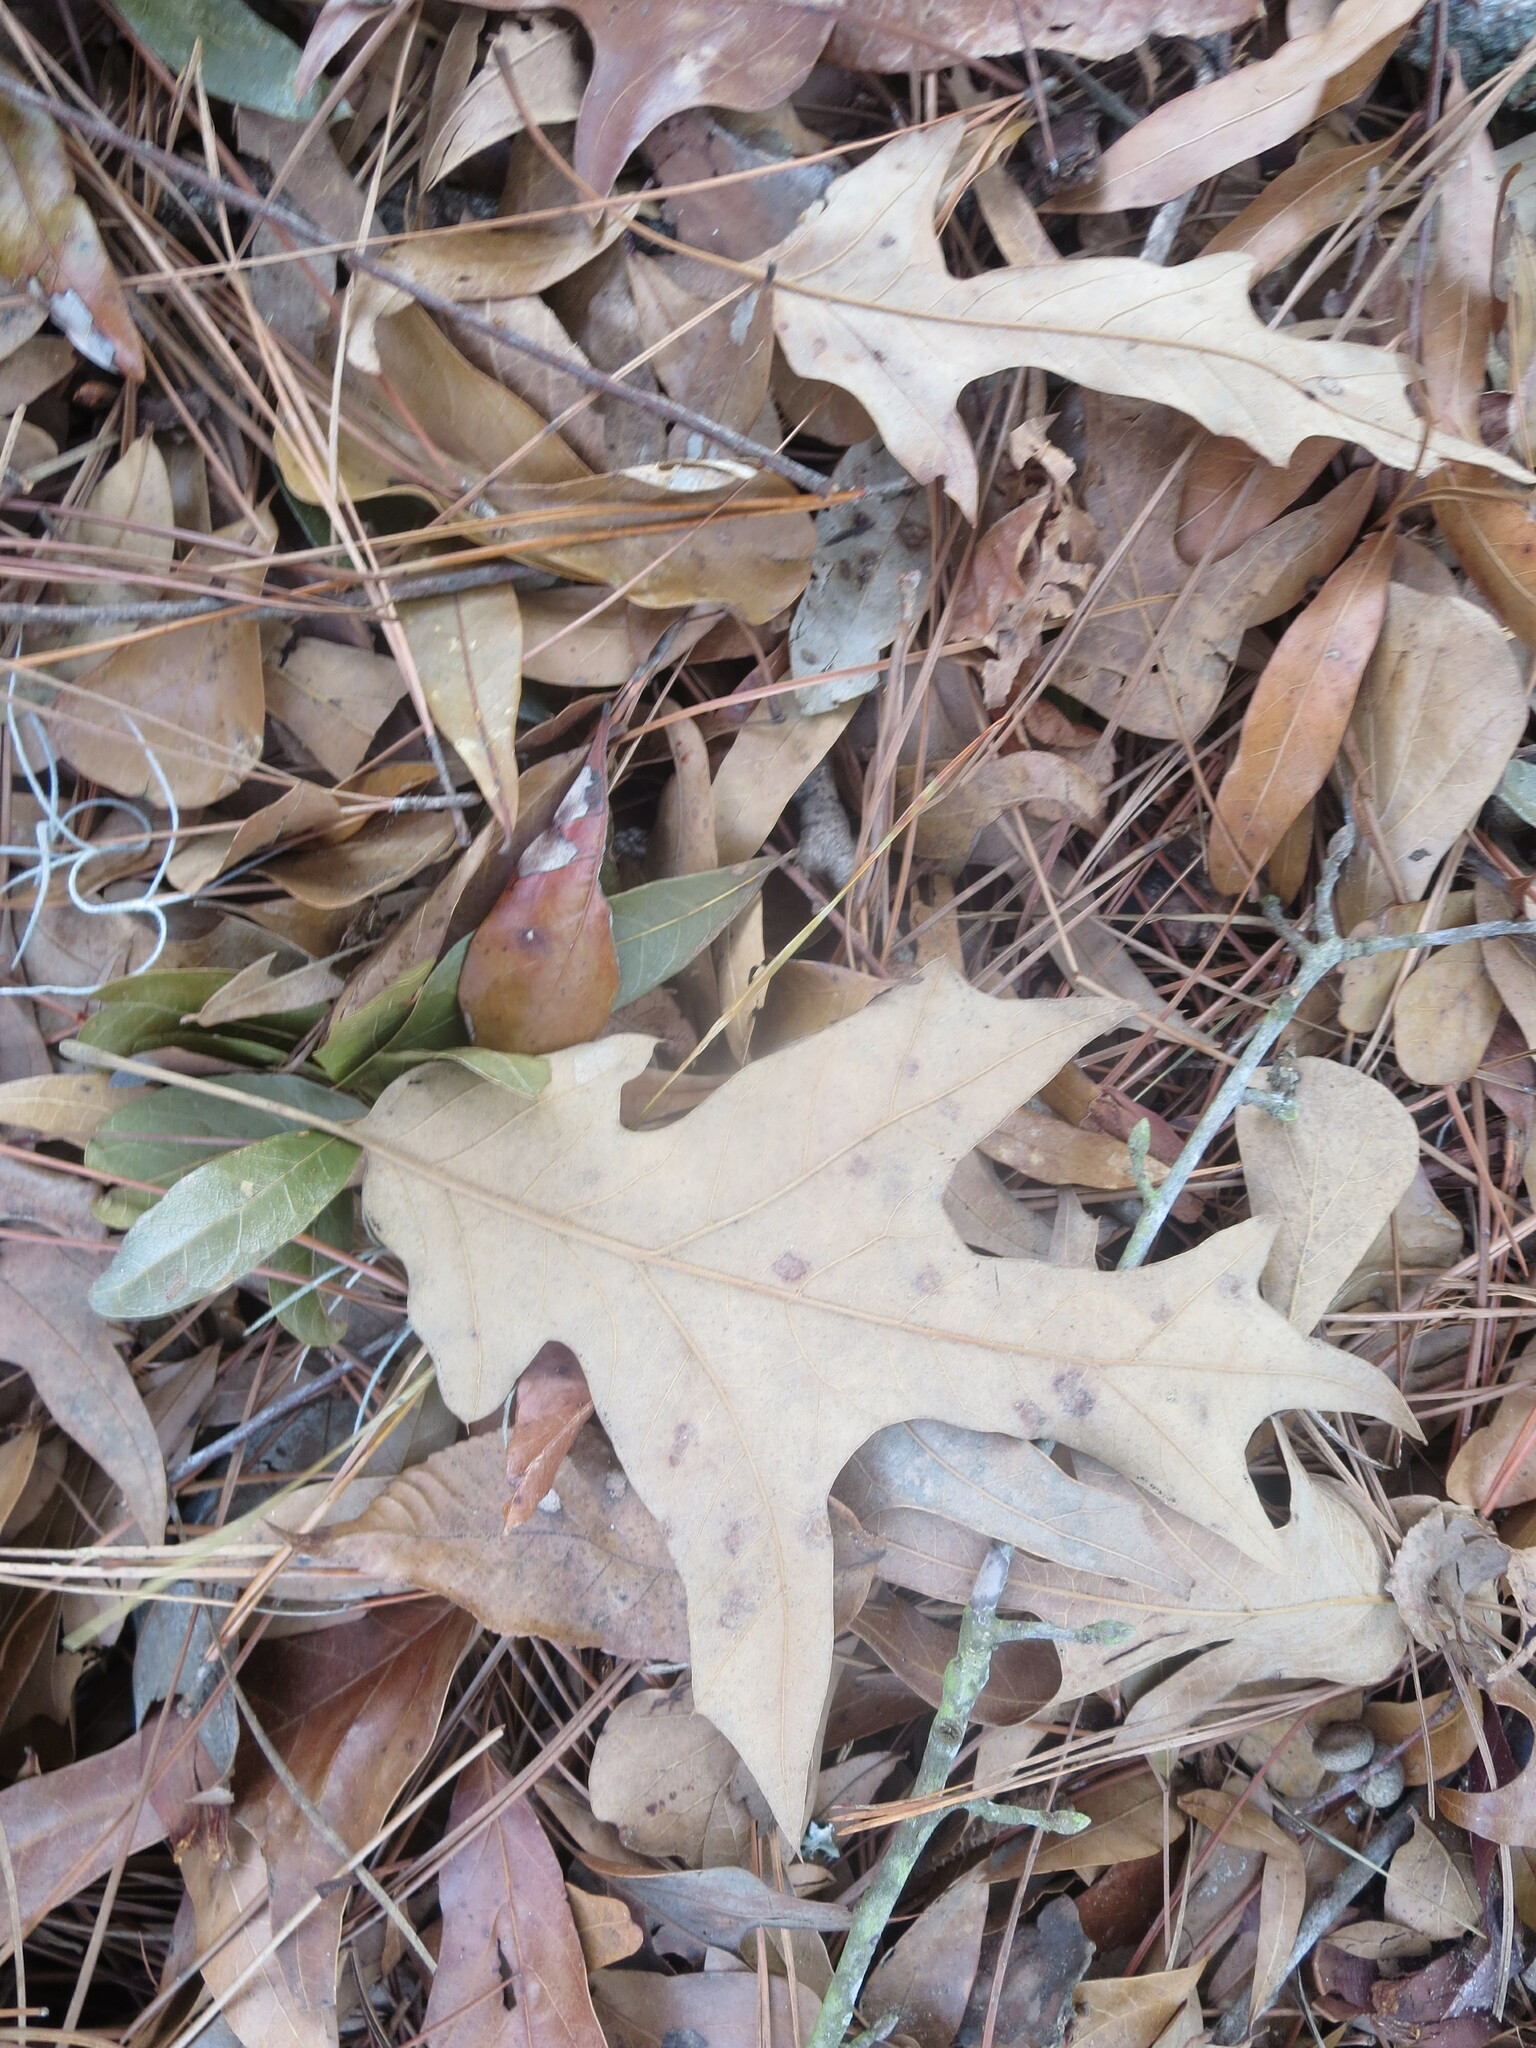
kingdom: Plantae
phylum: Tracheophyta
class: Magnoliopsida
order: Fagales
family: Fagaceae
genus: Quercus
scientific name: Quercus falcata
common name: Southern red oak
